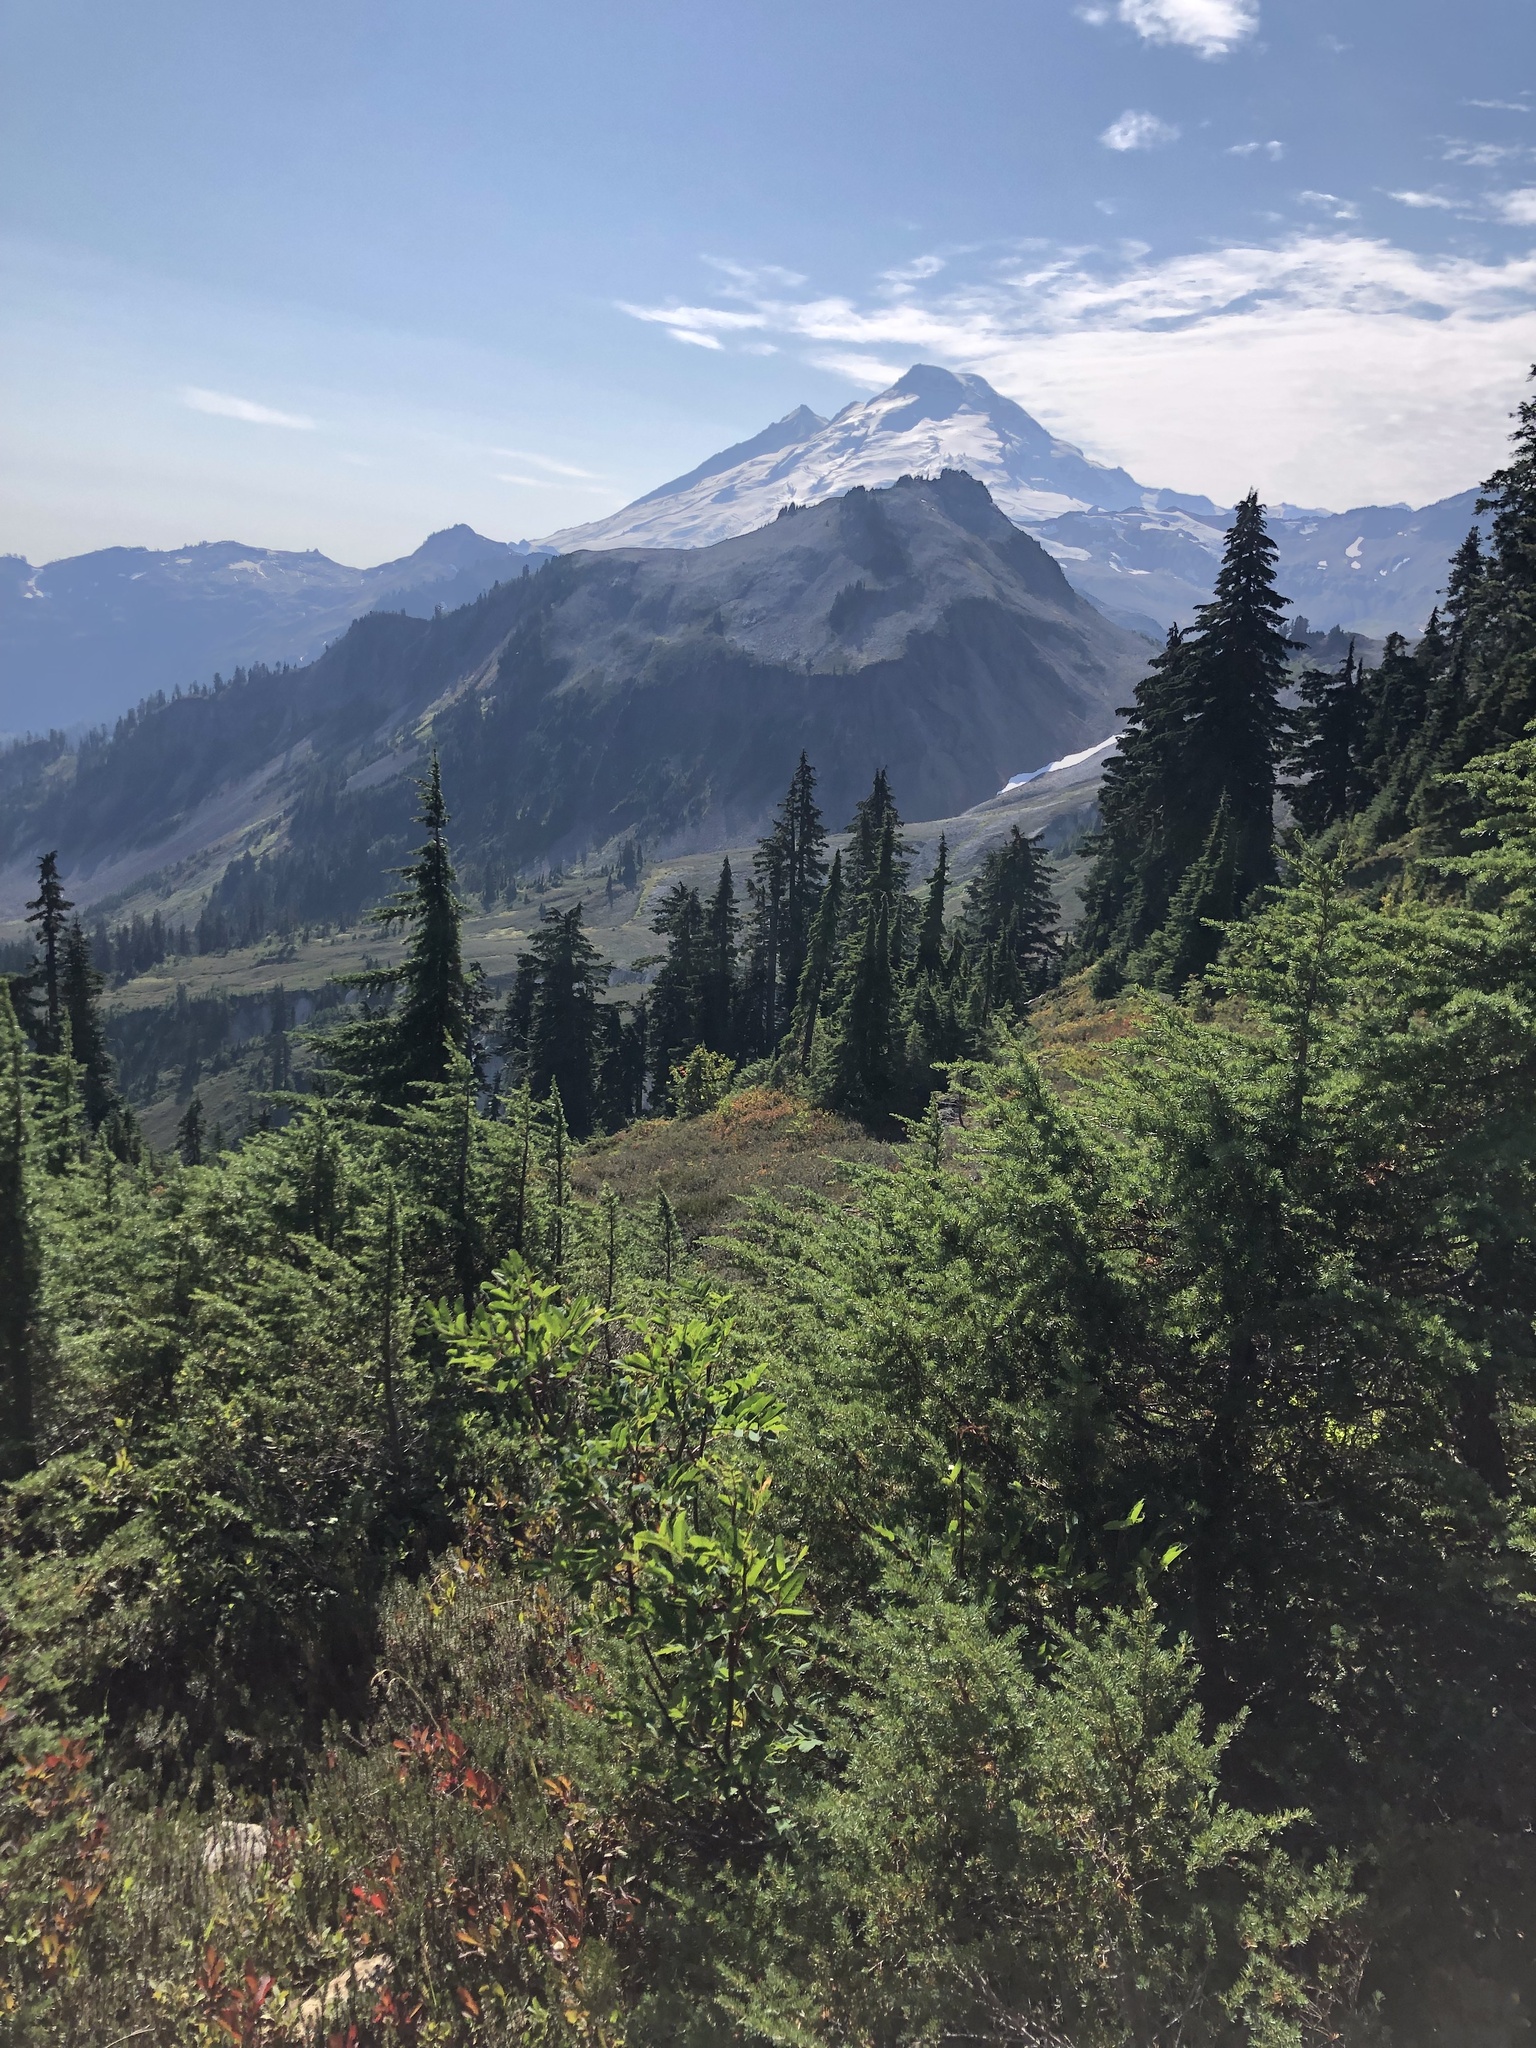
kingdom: Plantae
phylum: Tracheophyta
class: Magnoliopsida
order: Rosales
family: Rosaceae
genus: Sorbus
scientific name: Sorbus sitchensis
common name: Sitka mountain-ash
